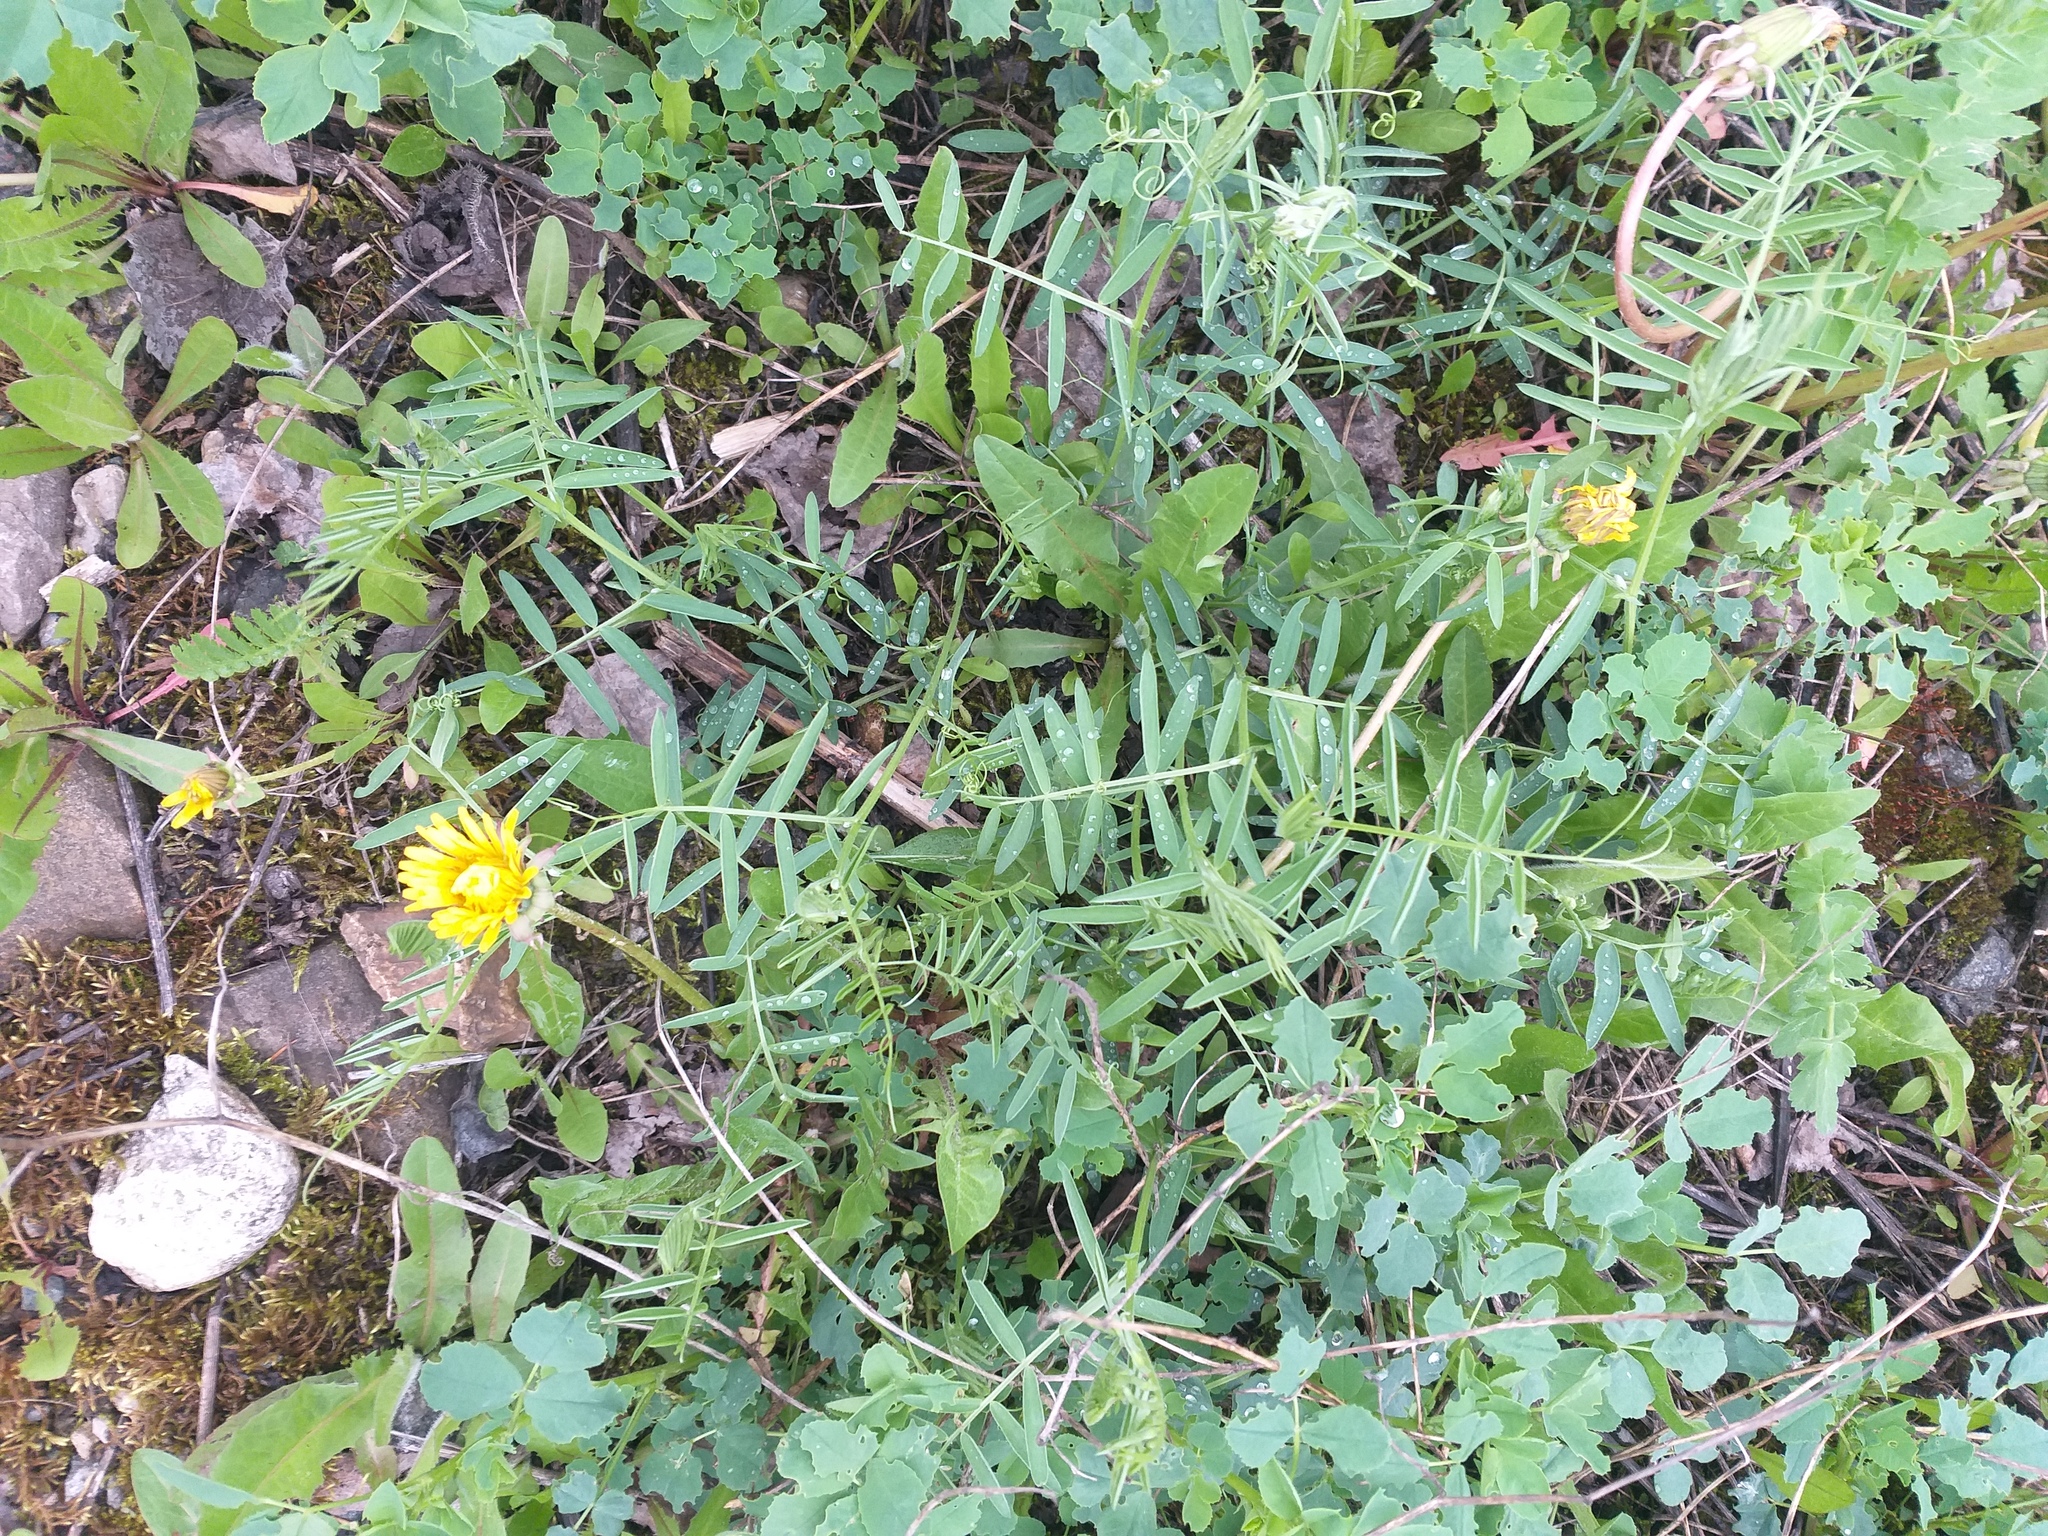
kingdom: Plantae
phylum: Tracheophyta
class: Magnoliopsida
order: Fabales
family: Fabaceae
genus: Vicia
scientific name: Vicia cracca
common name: Bird vetch
